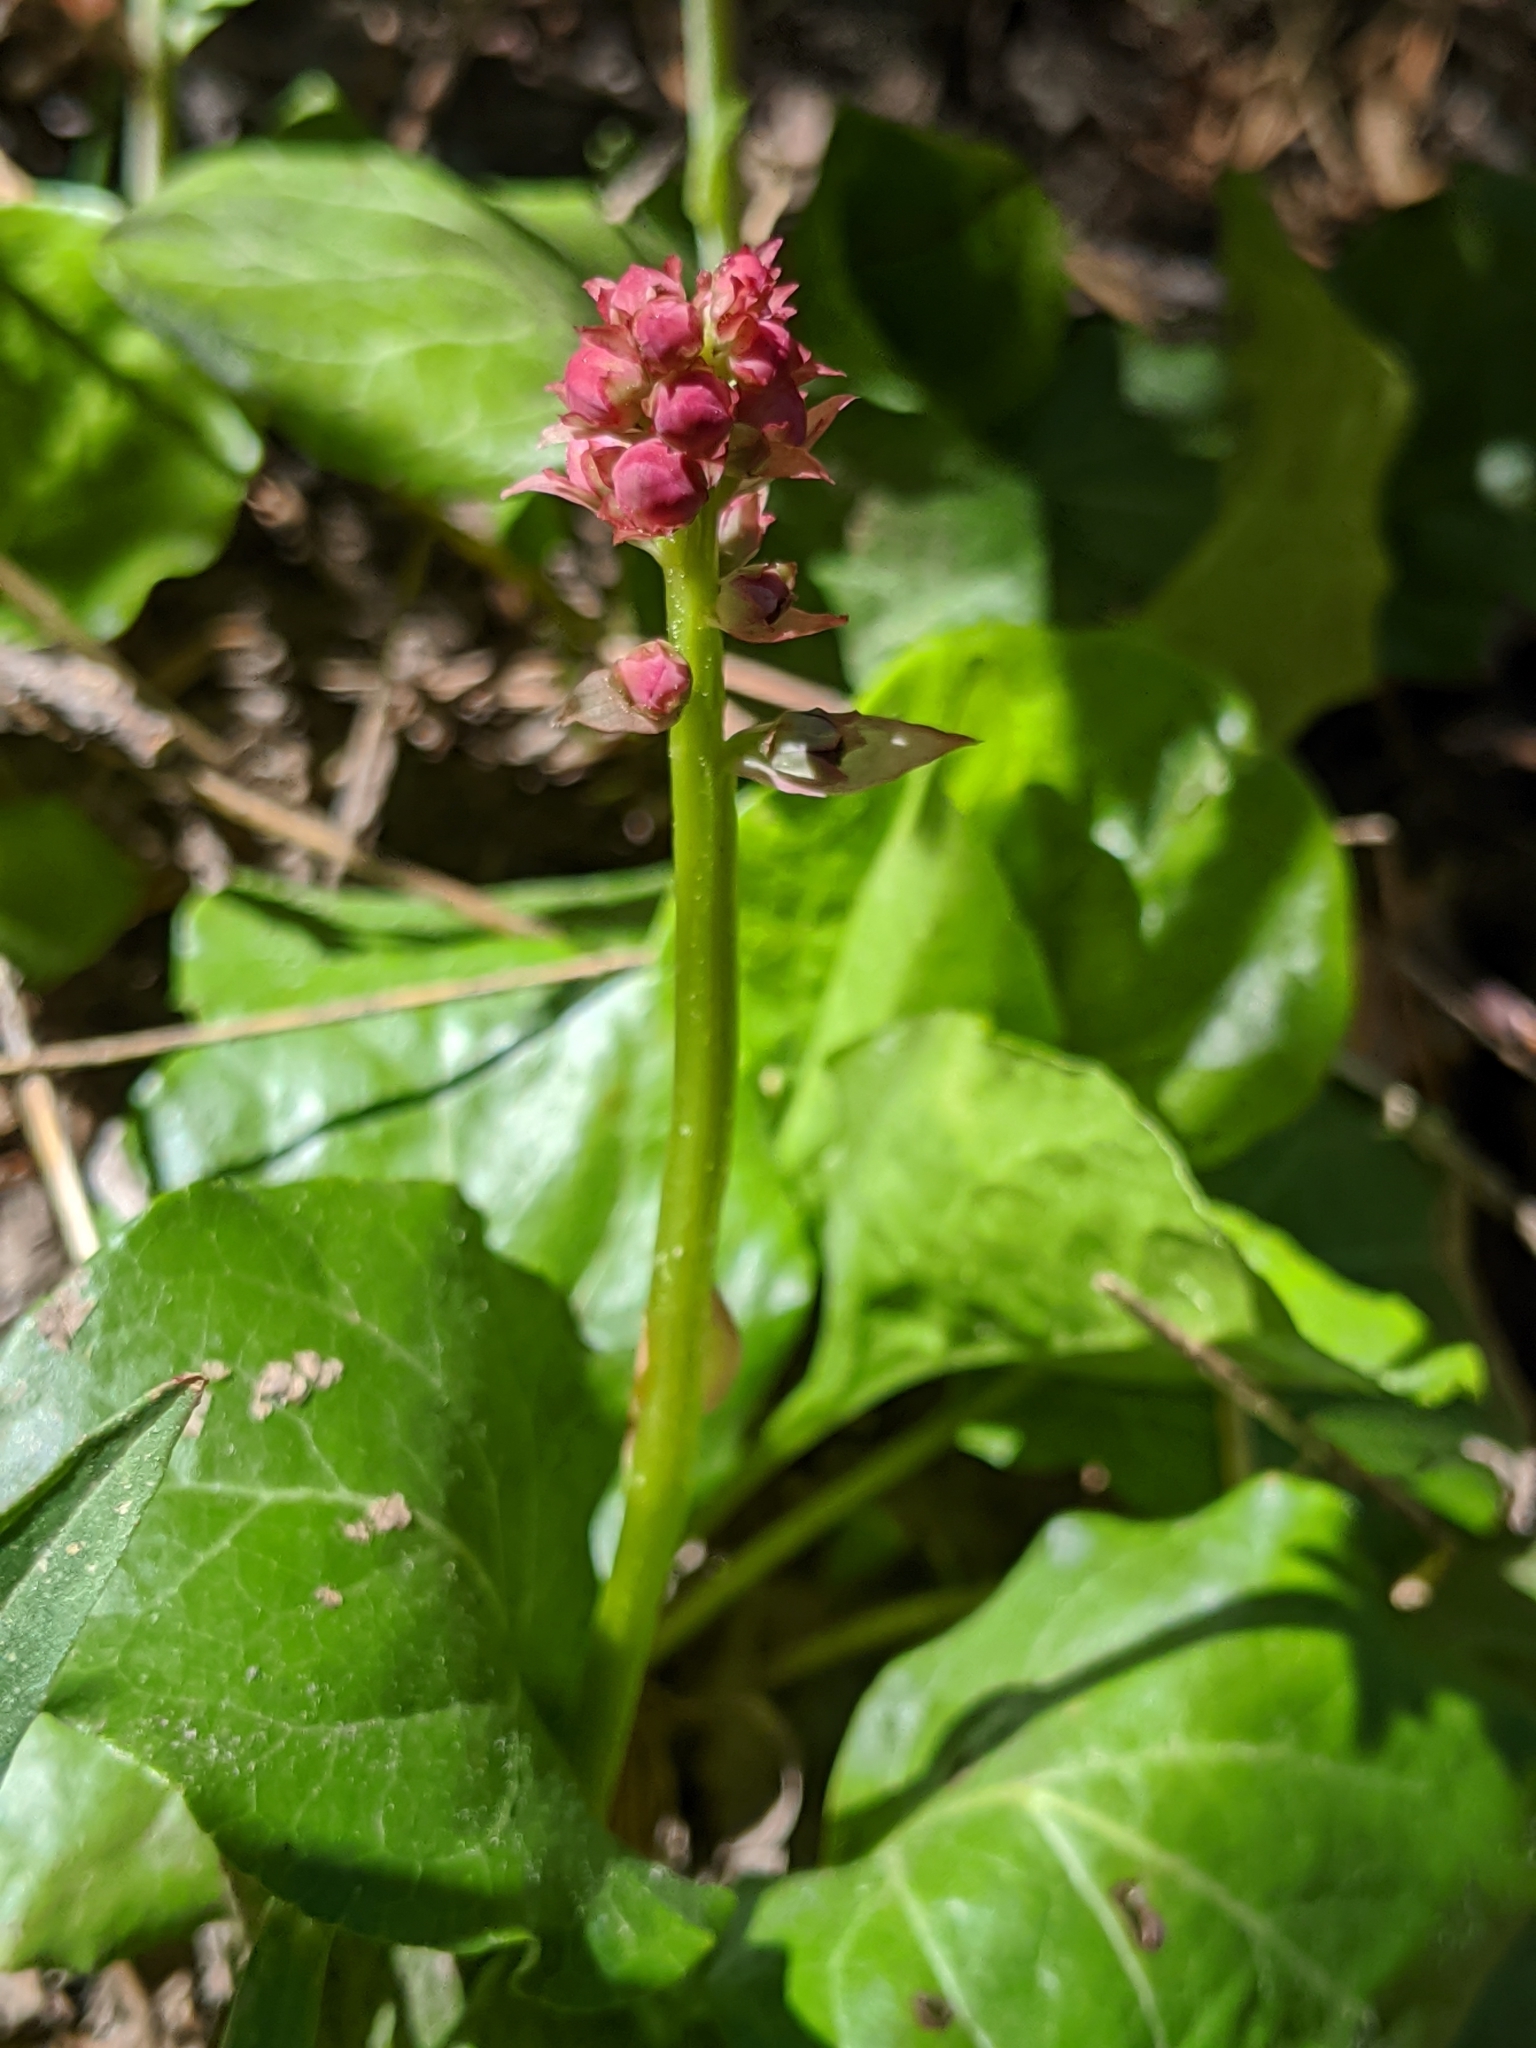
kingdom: Plantae
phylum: Tracheophyta
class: Magnoliopsida
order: Ericales
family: Ericaceae
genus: Pyrola
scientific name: Pyrola asarifolia
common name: Bog wintergreen
